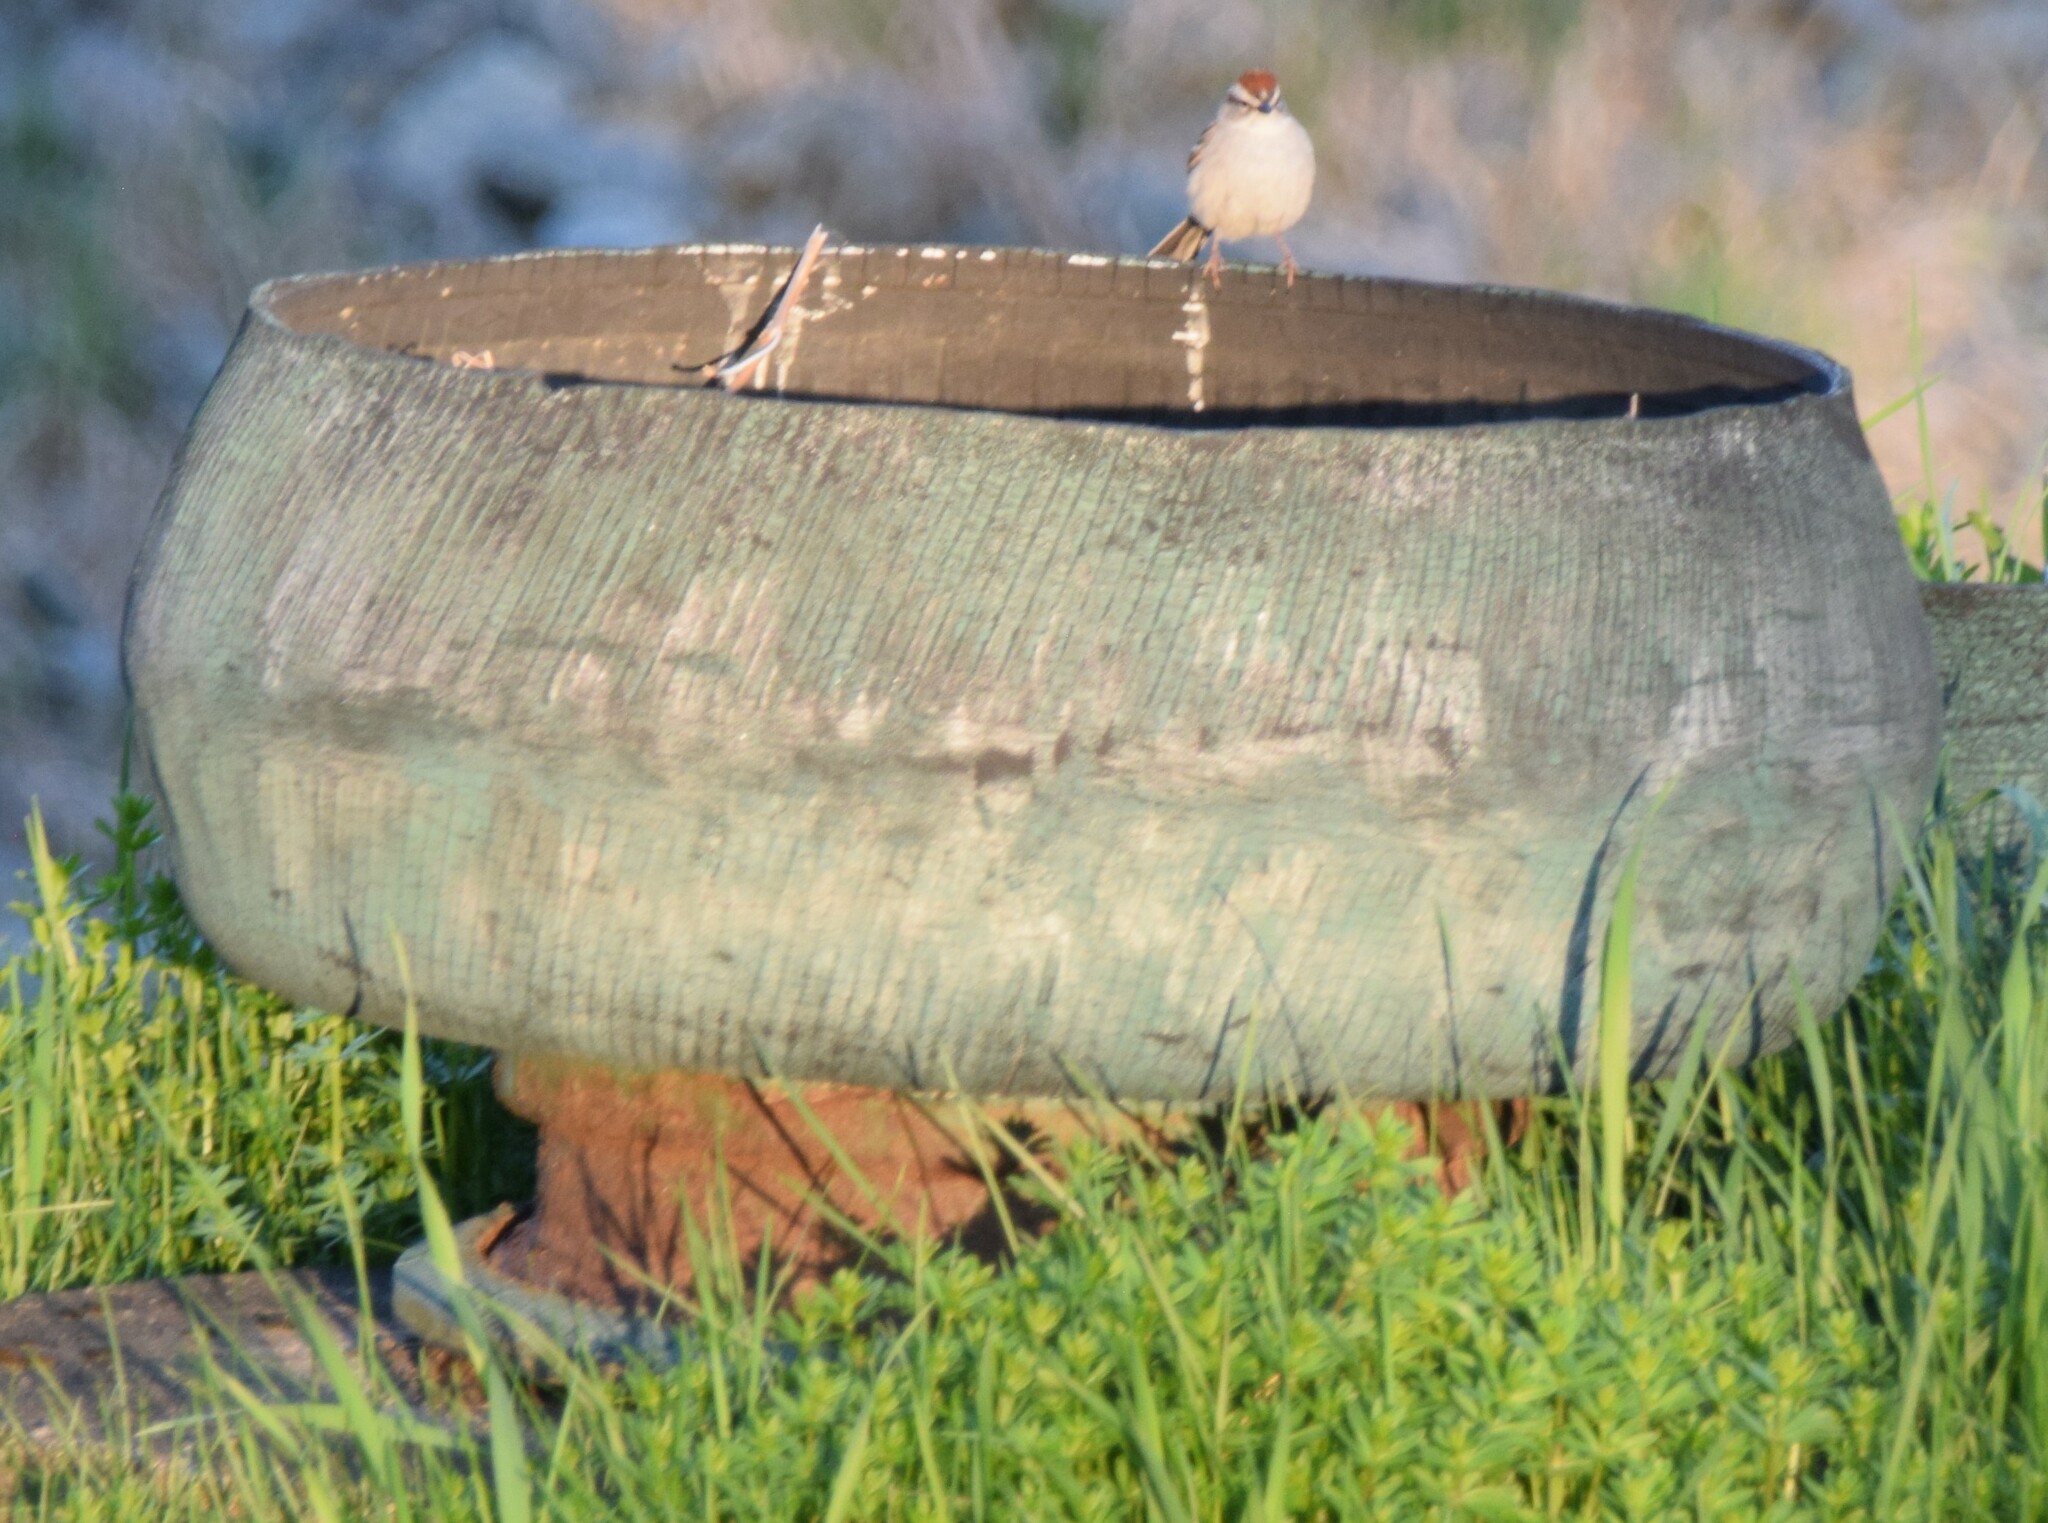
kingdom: Animalia
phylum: Chordata
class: Aves
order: Passeriformes
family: Passerellidae
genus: Spizella
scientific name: Spizella passerina
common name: Chipping sparrow
